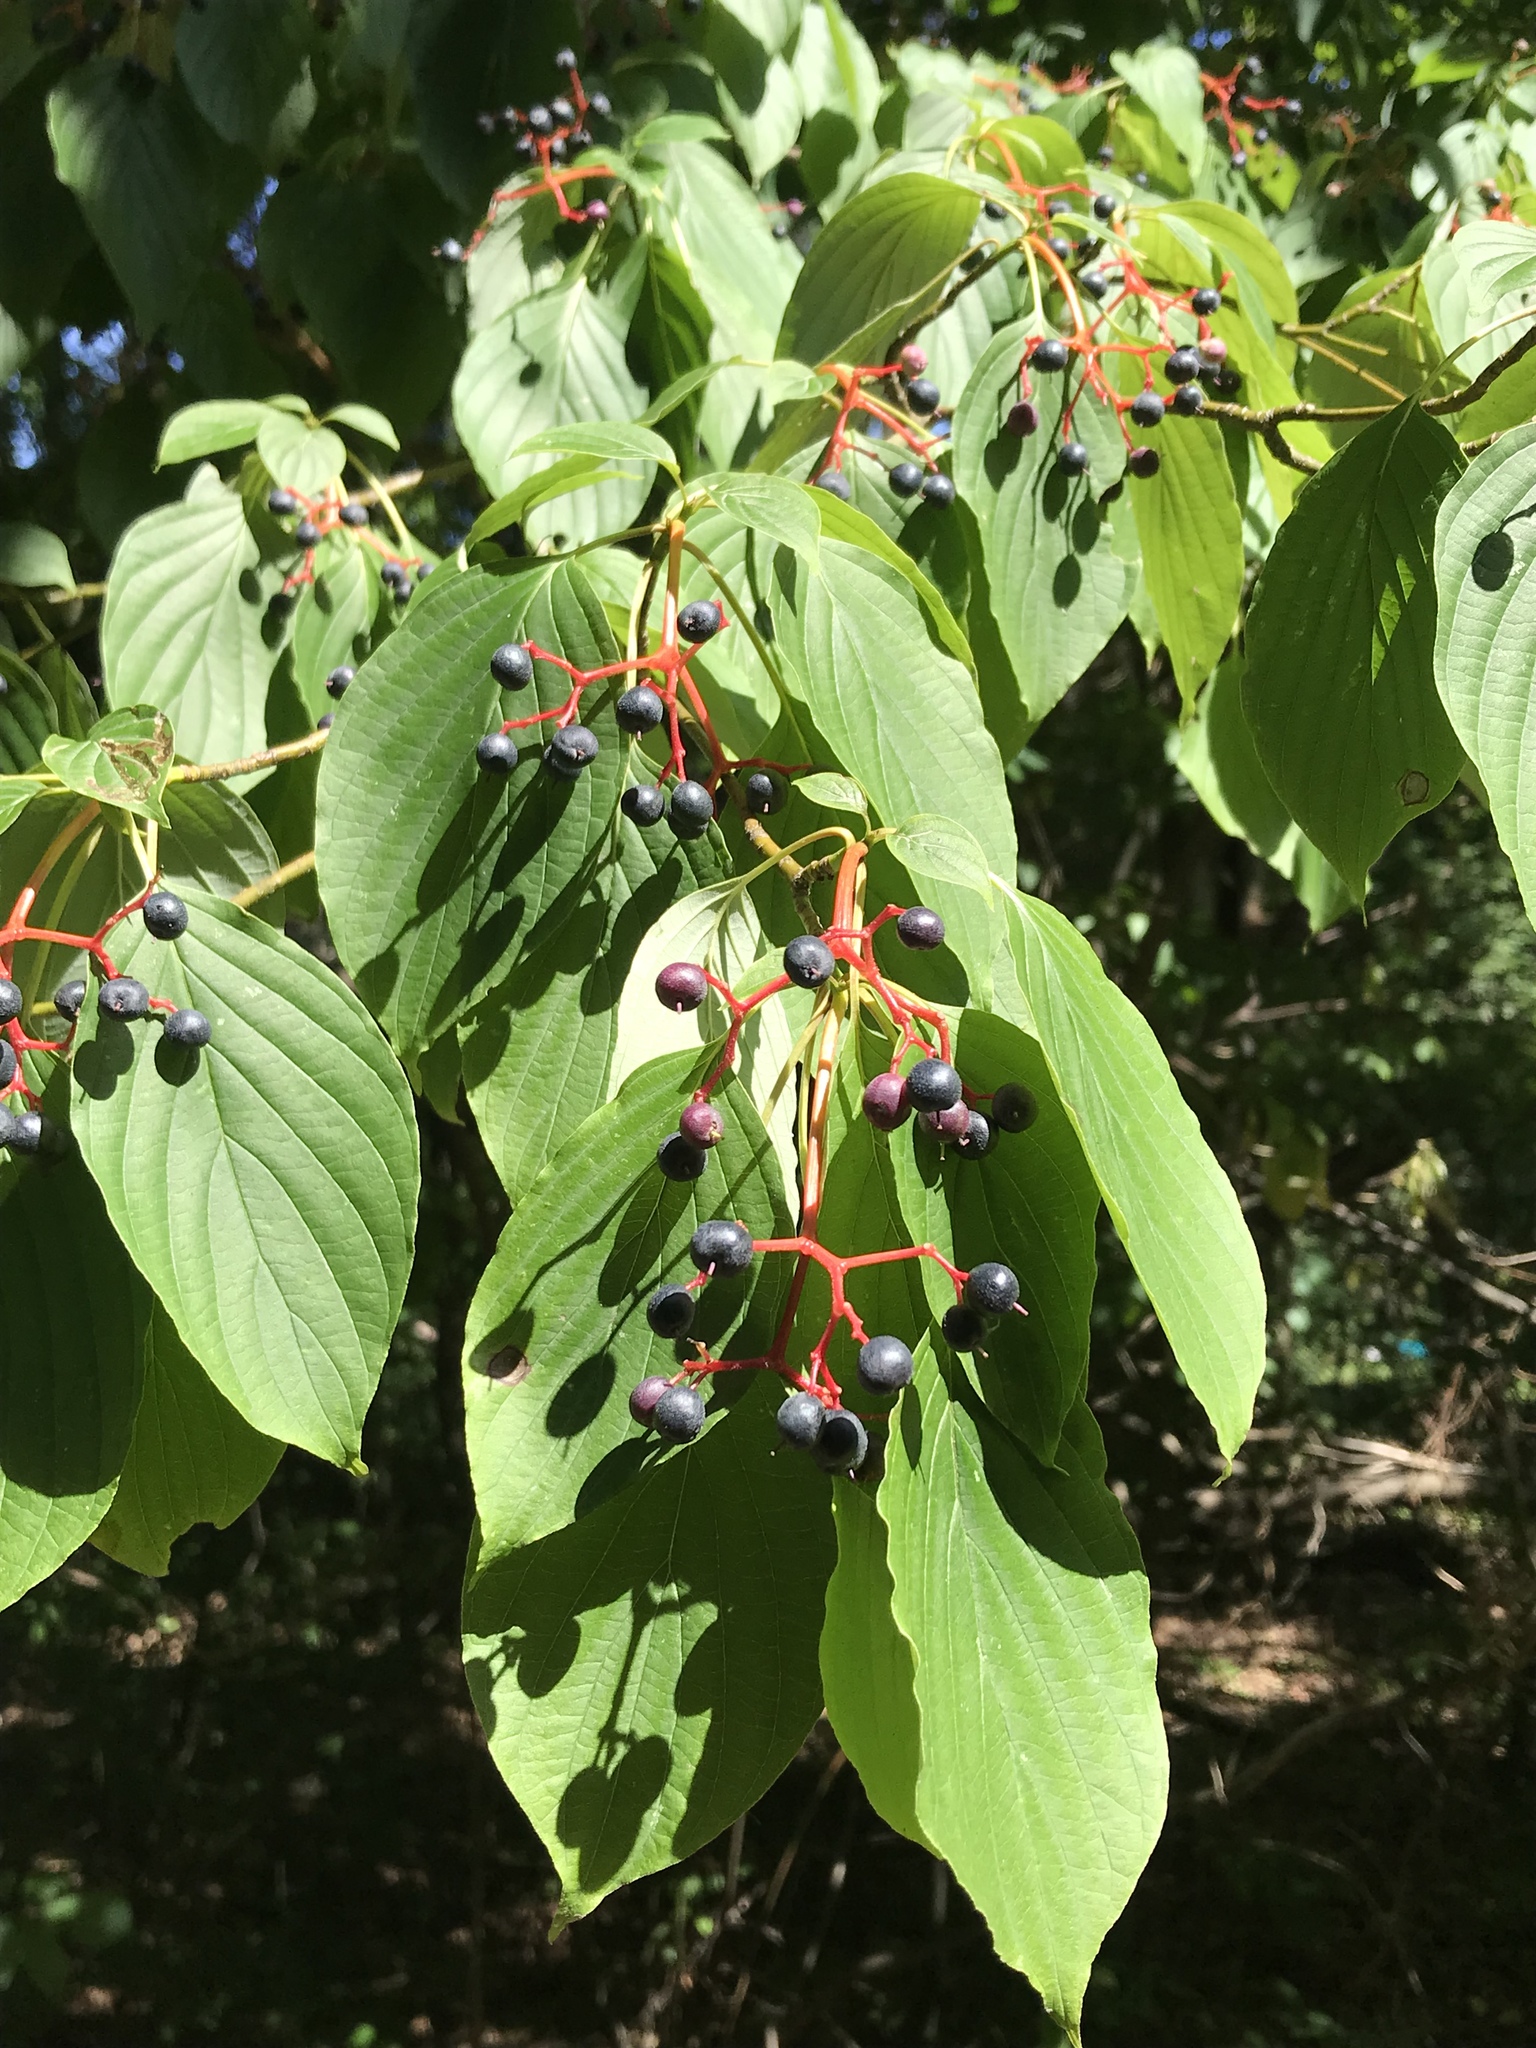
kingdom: Plantae
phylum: Tracheophyta
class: Magnoliopsida
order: Cornales
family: Cornaceae
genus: Cornus
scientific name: Cornus alternifolia
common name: Pagoda dogwood
